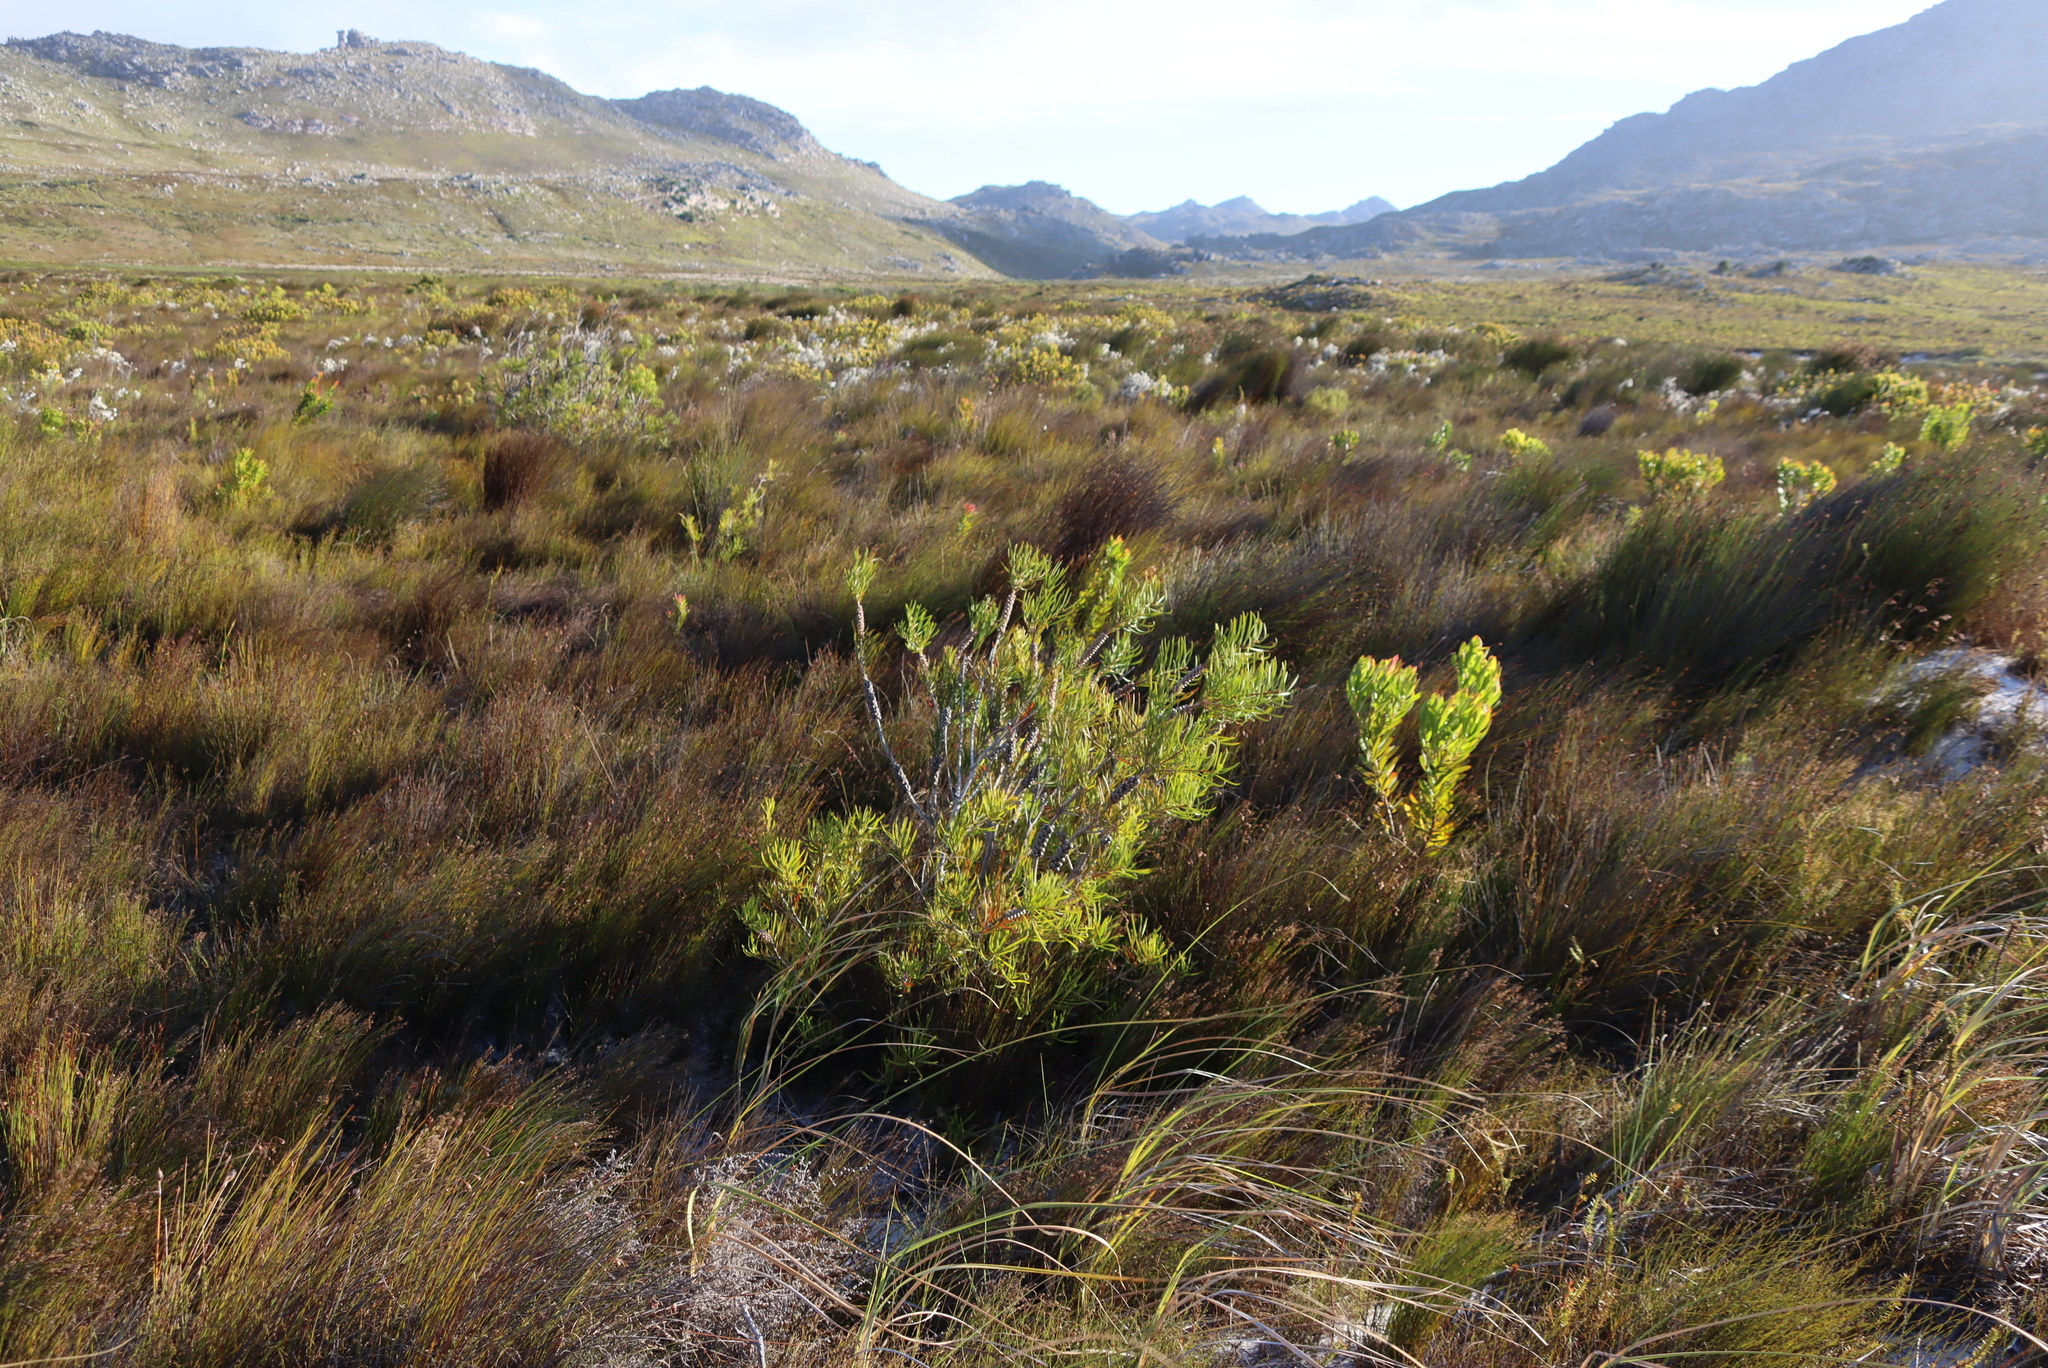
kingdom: Plantae
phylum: Tracheophyta
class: Magnoliopsida
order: Myrtales
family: Myrtaceae
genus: Callistemon
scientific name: Callistemon linearis
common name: Narrow-leaf bottlebrush
